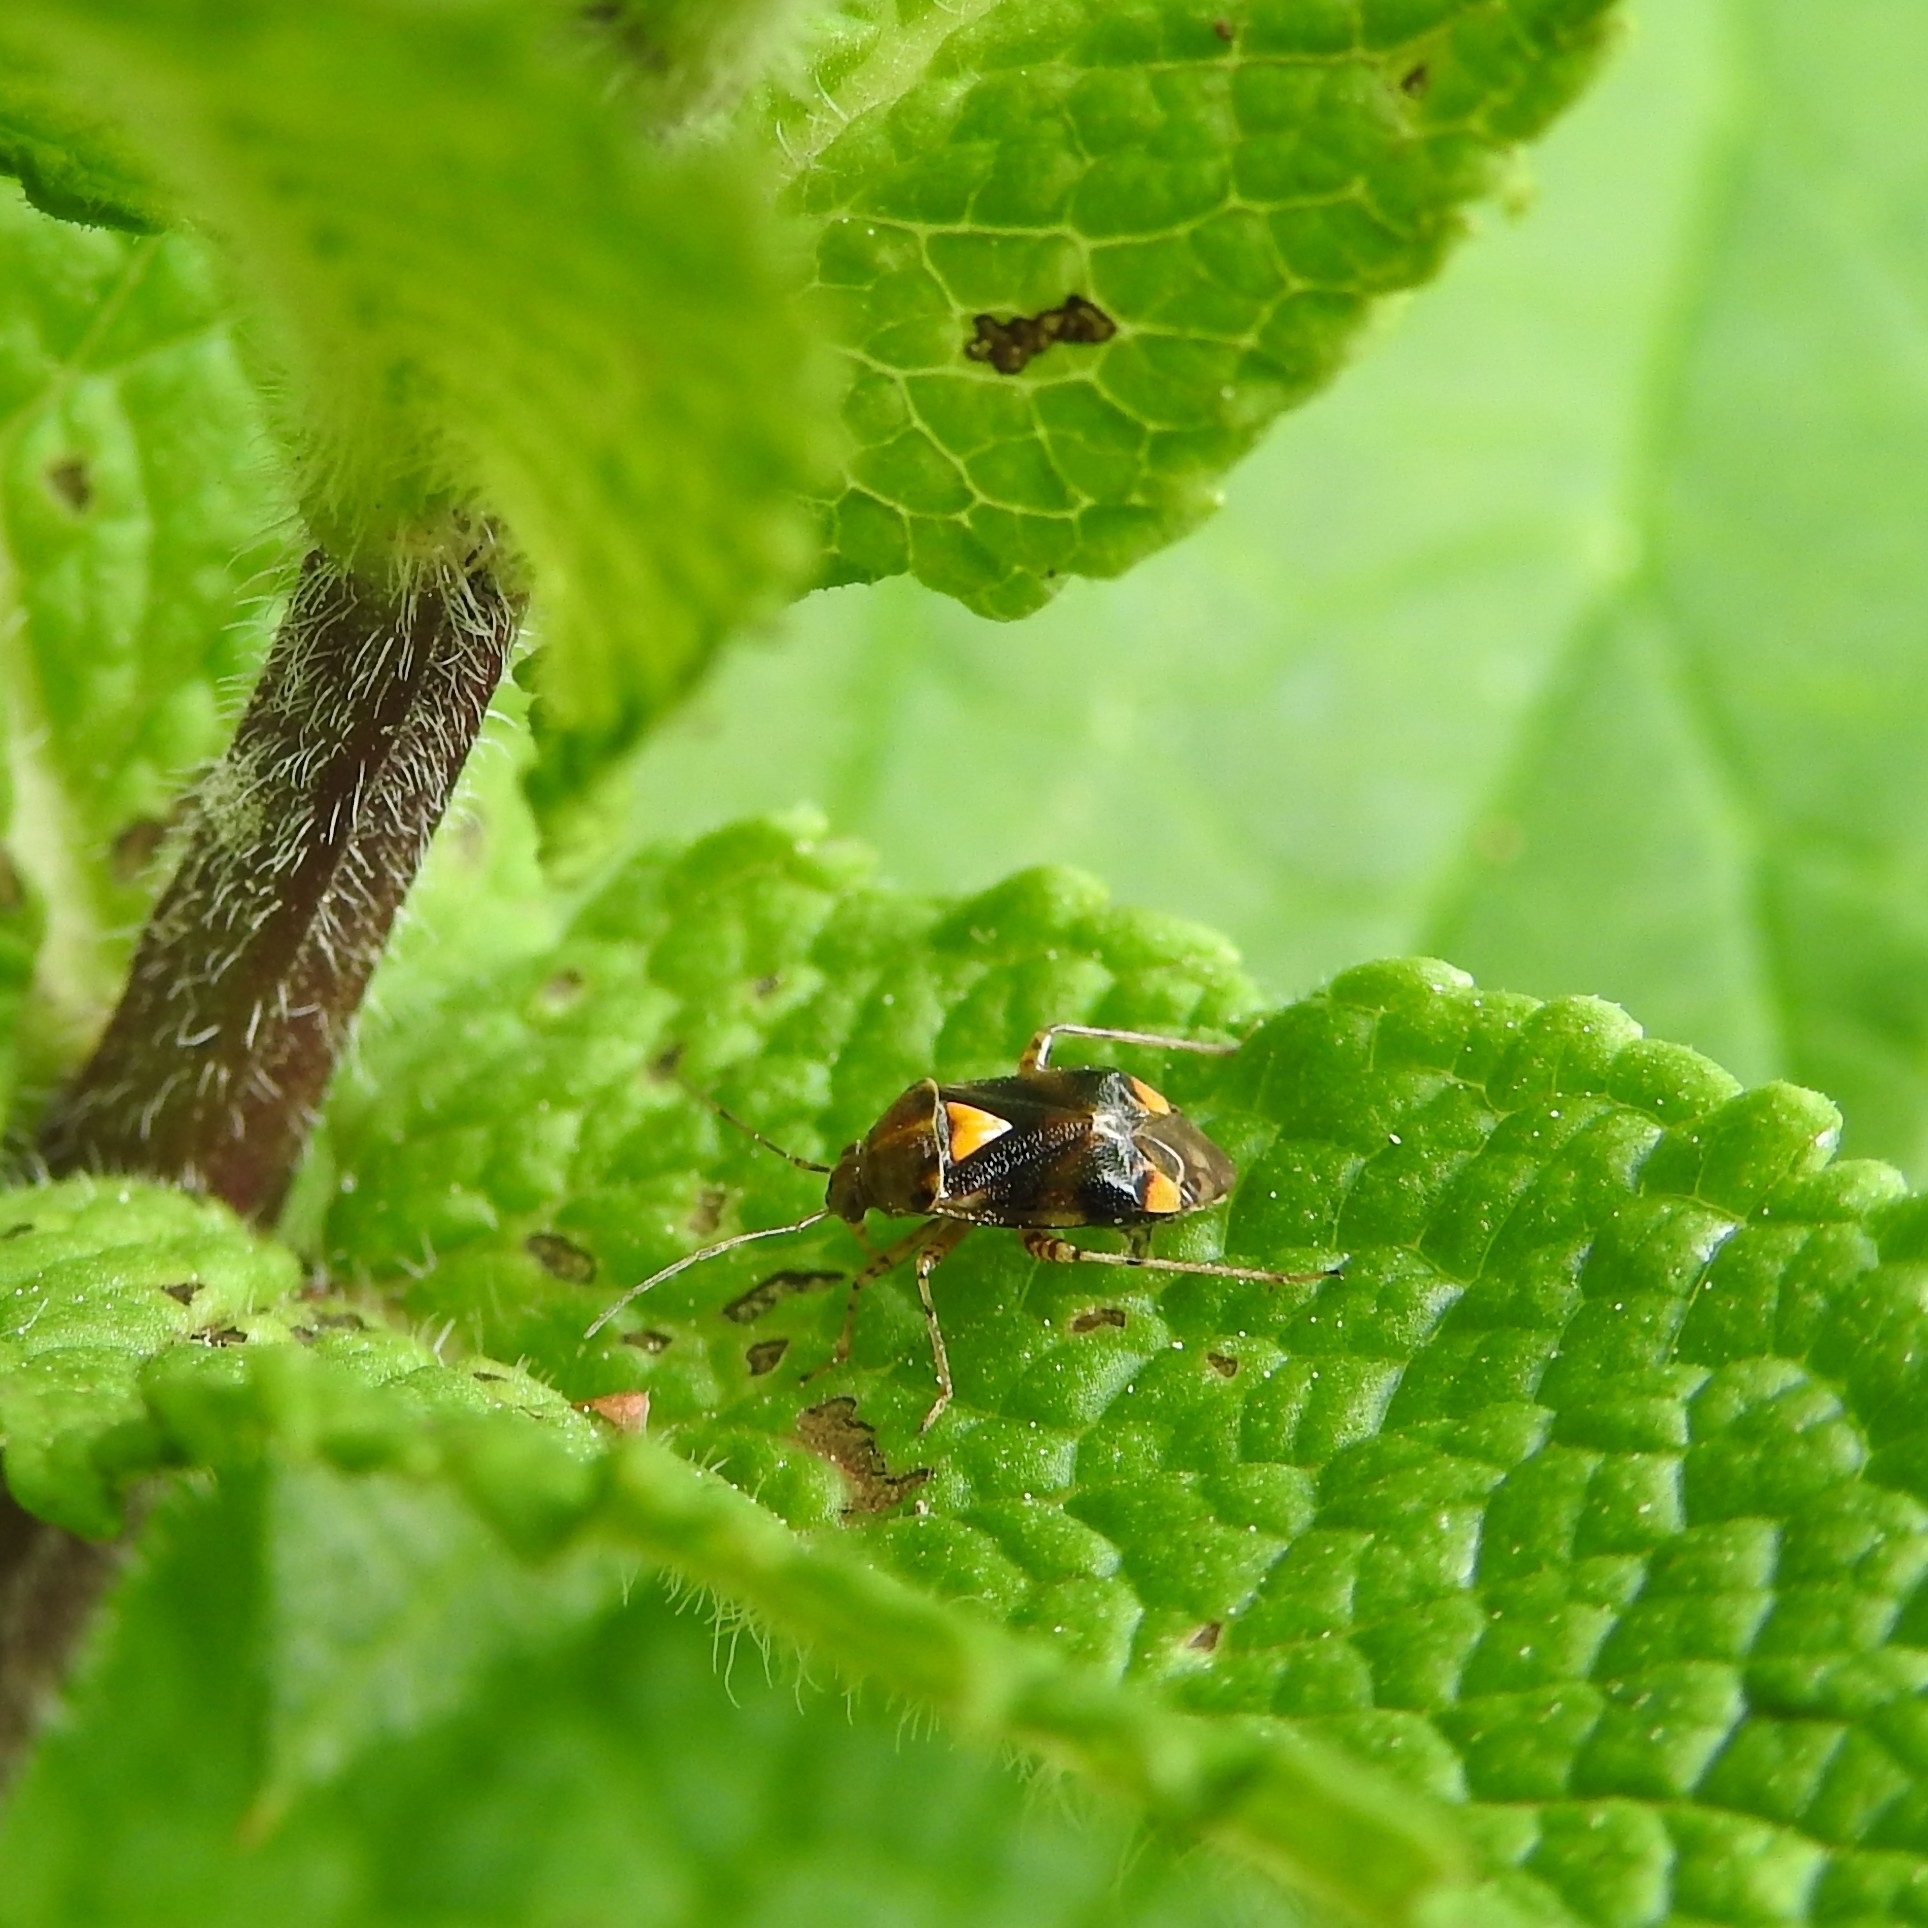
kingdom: Animalia
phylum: Arthropoda
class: Insecta
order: Hemiptera
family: Miridae
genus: Liocoris
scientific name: Liocoris tripustulatus
